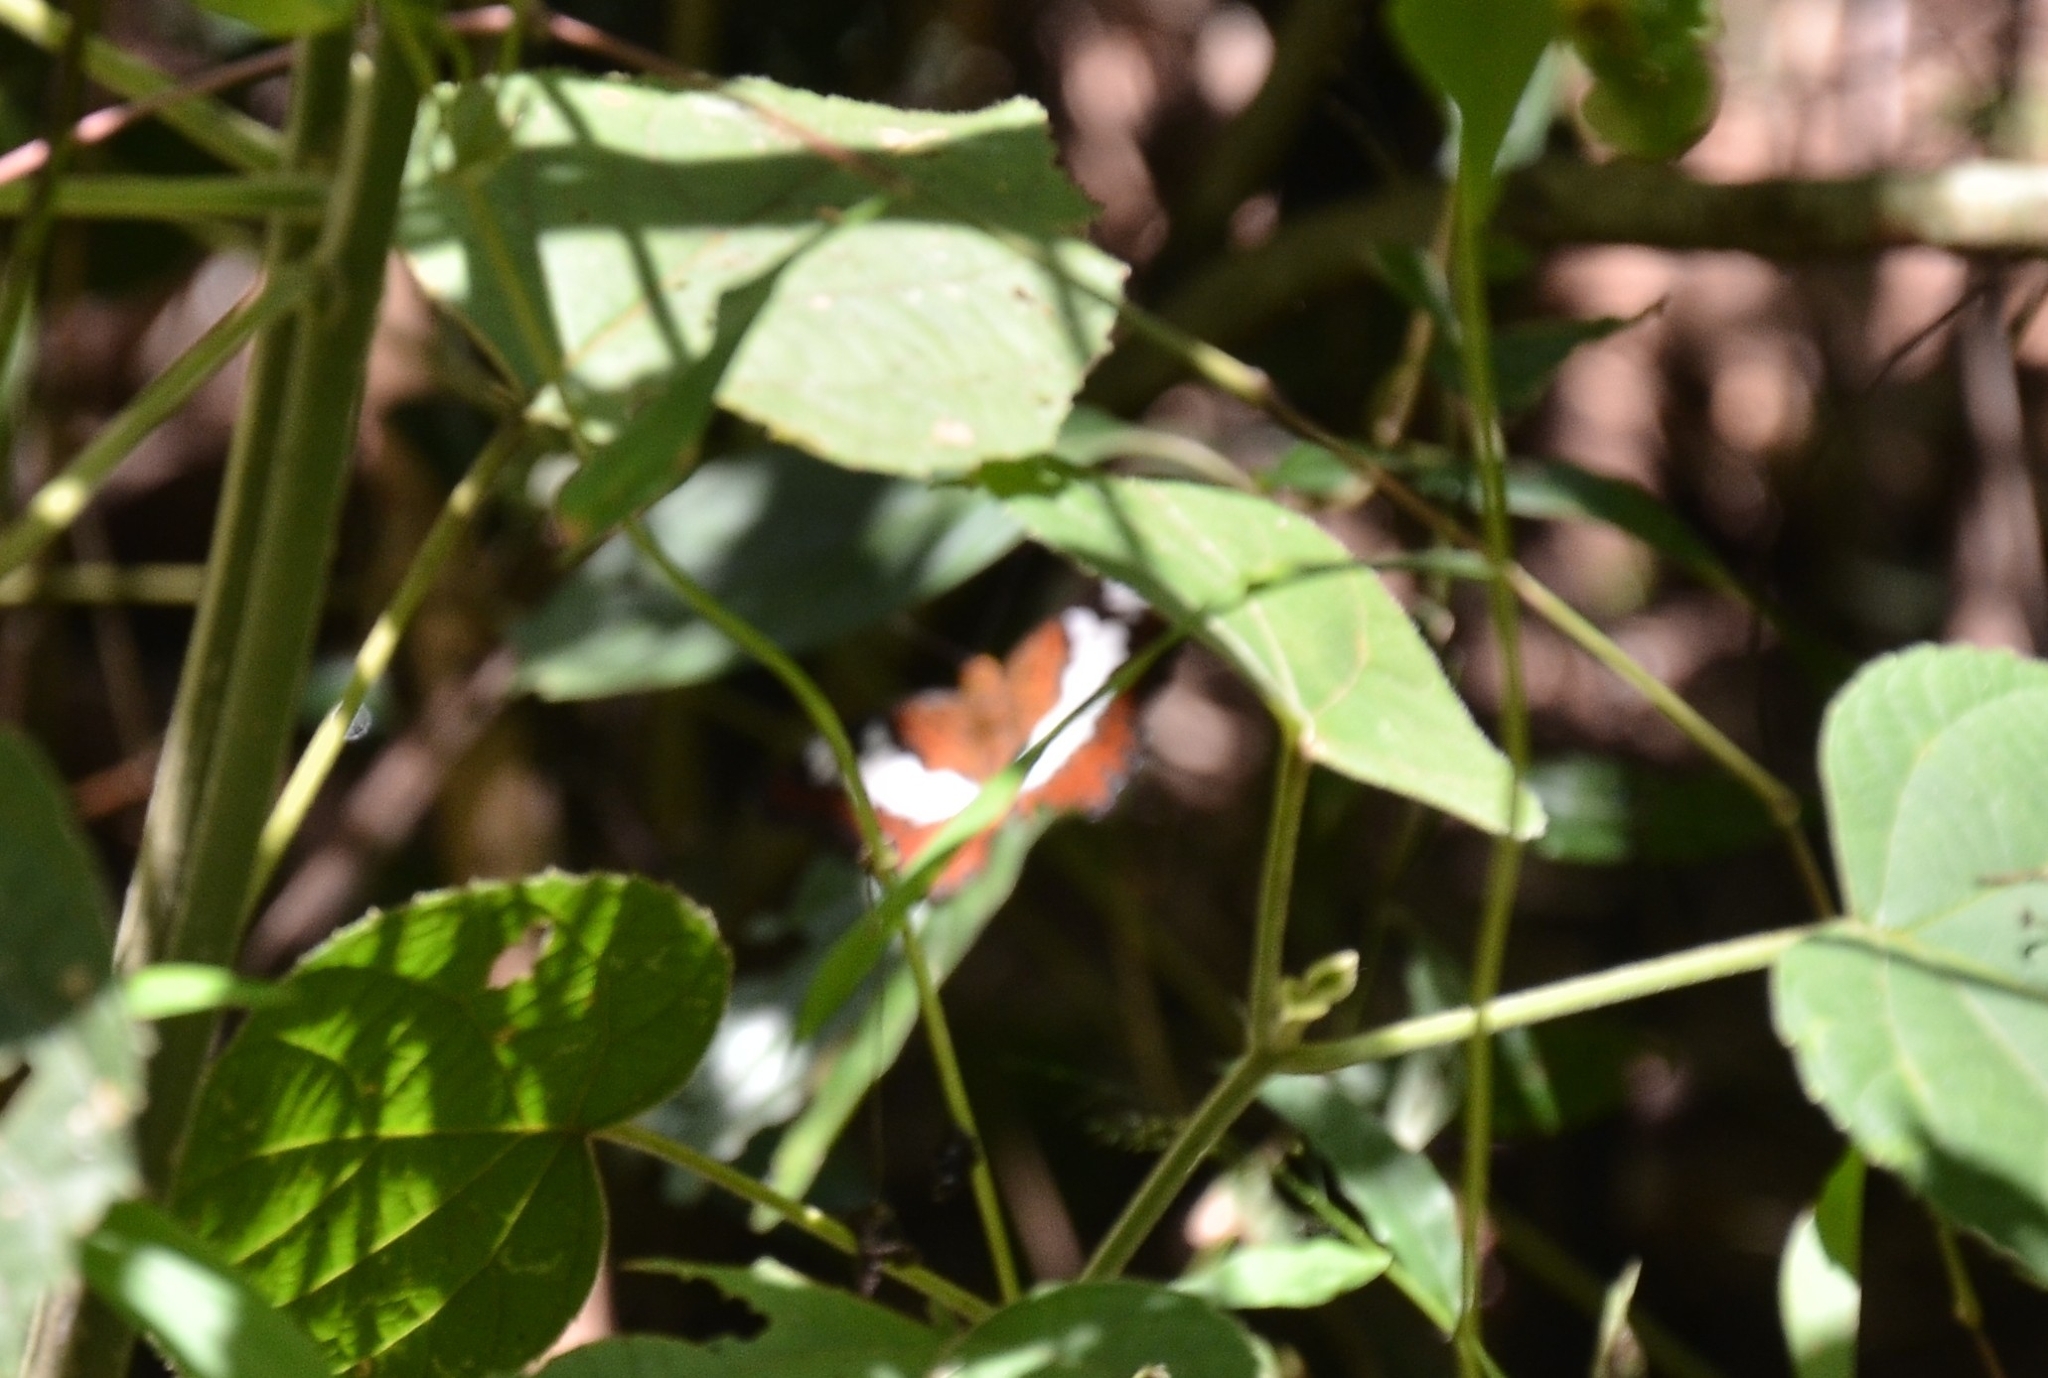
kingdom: Animalia
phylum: Arthropoda
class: Insecta
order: Lepidoptera
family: Nymphalidae
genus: Limenitis
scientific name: Limenitis Moduza procris
